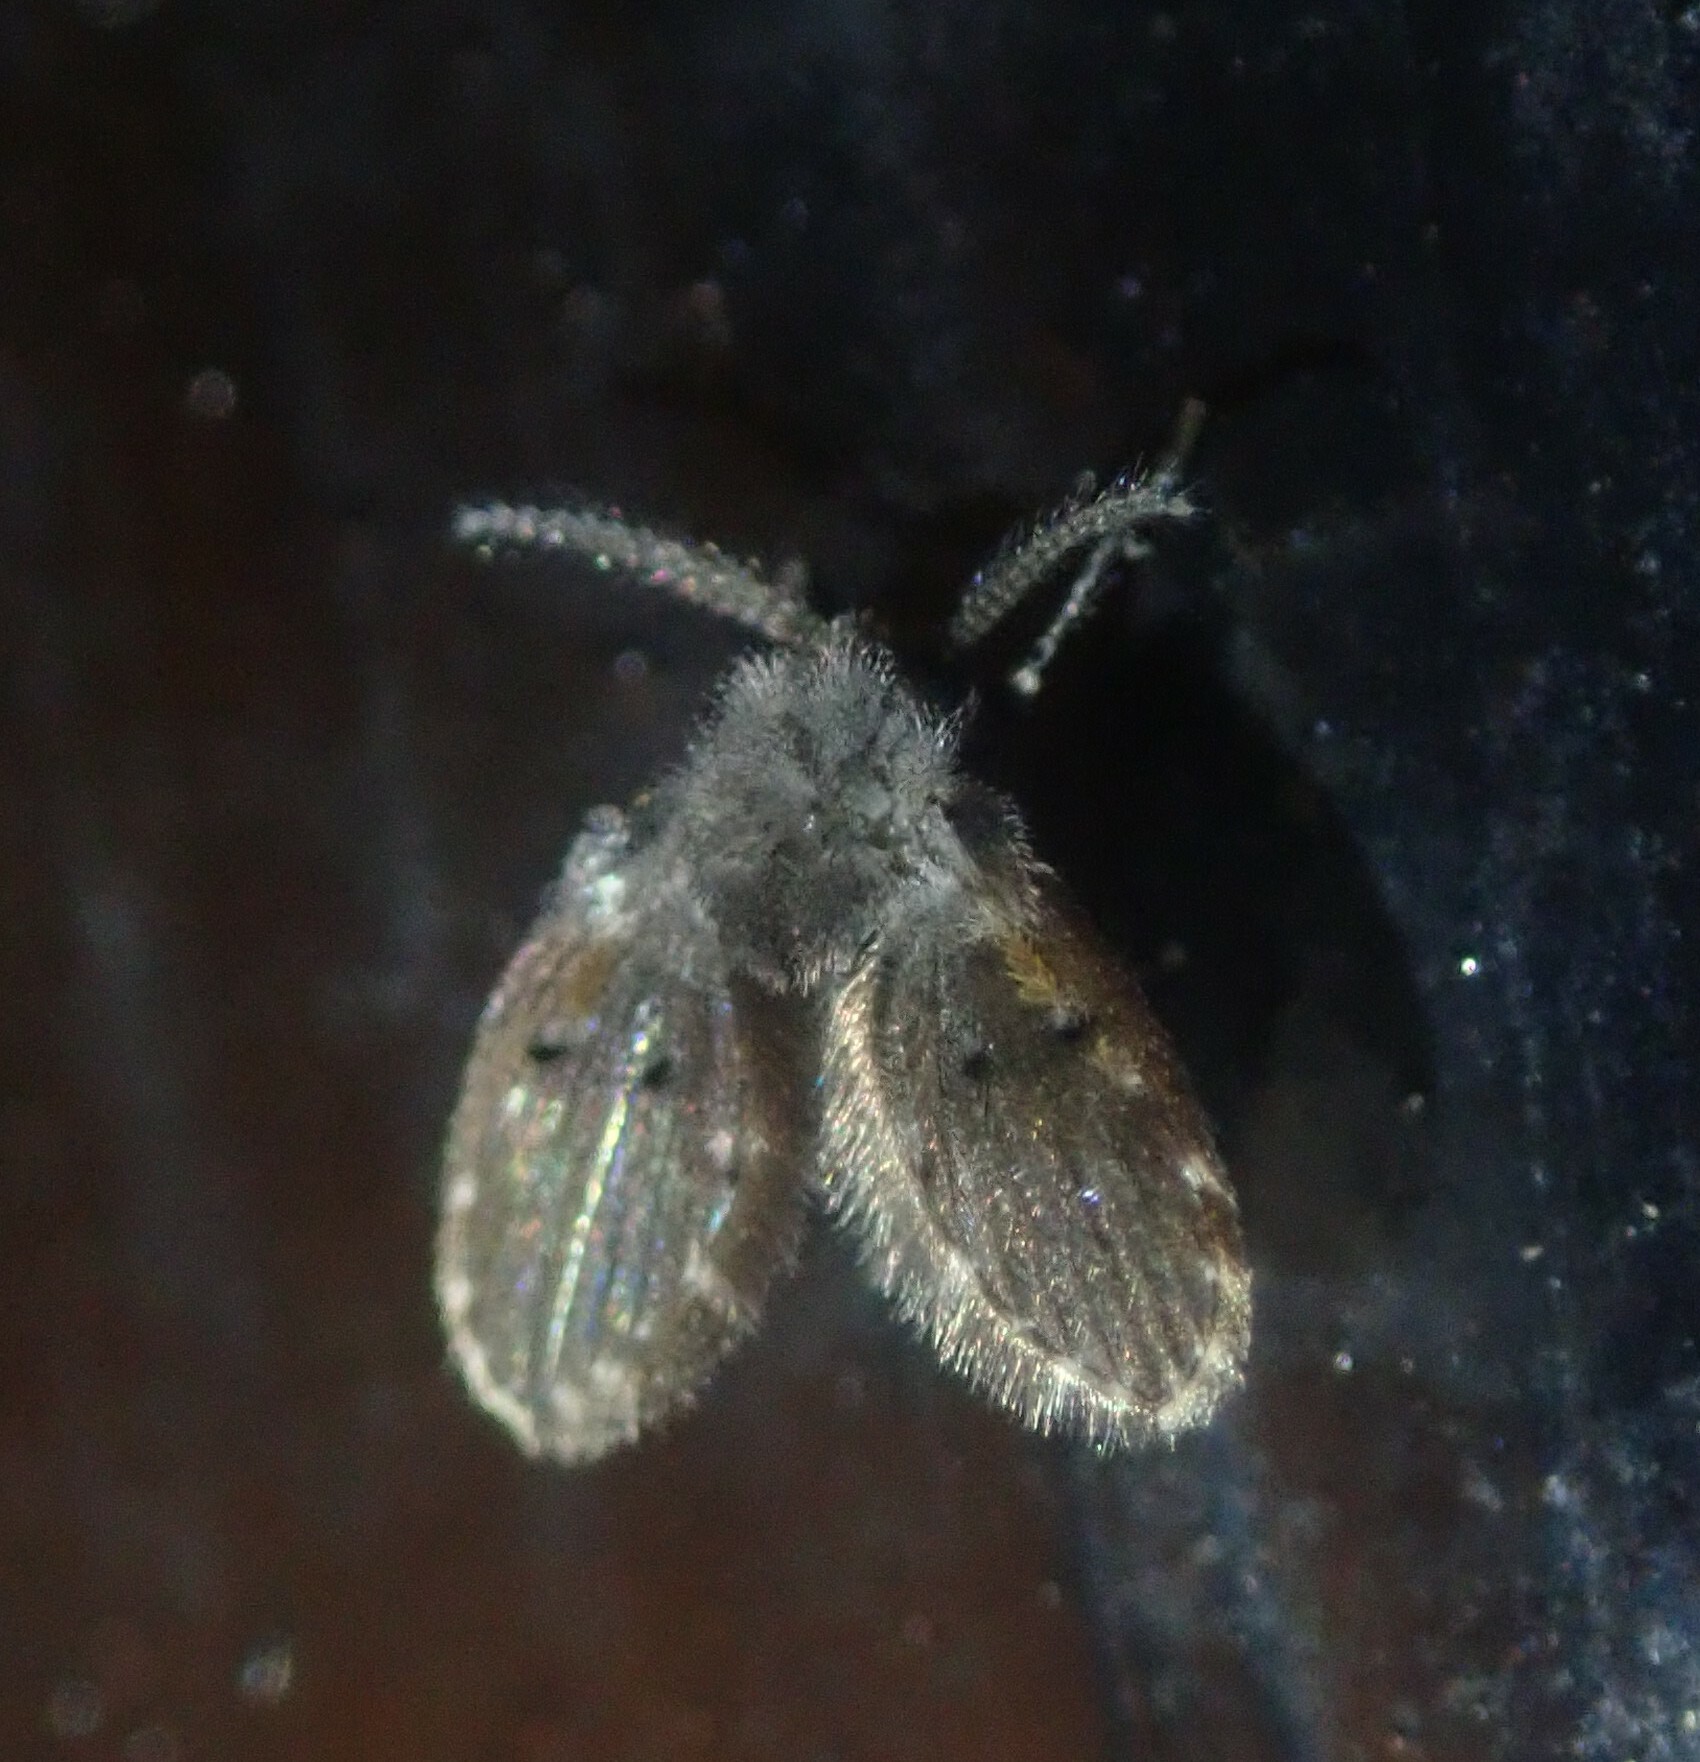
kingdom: Animalia
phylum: Arthropoda
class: Insecta
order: Diptera
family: Psychodidae
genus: Clogmia
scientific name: Clogmia albipunctatus
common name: White-spotted moth fly
